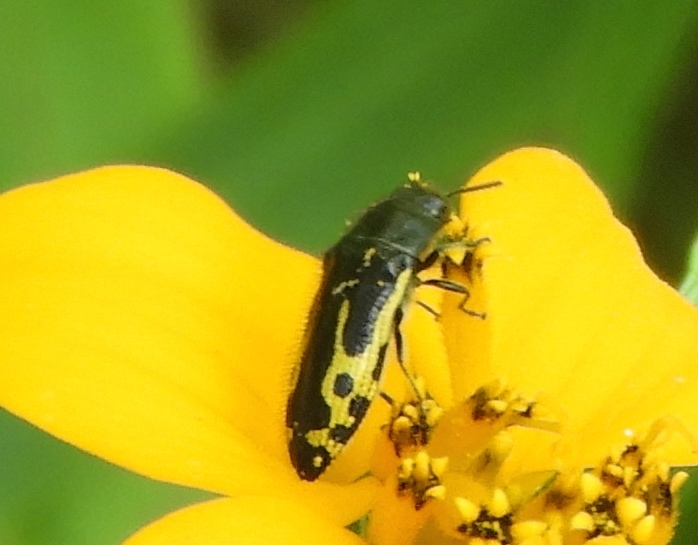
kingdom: Animalia
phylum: Arthropoda
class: Insecta
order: Coleoptera
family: Buprestidae
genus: Acmaeodera
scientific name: Acmaeodera scalaris
